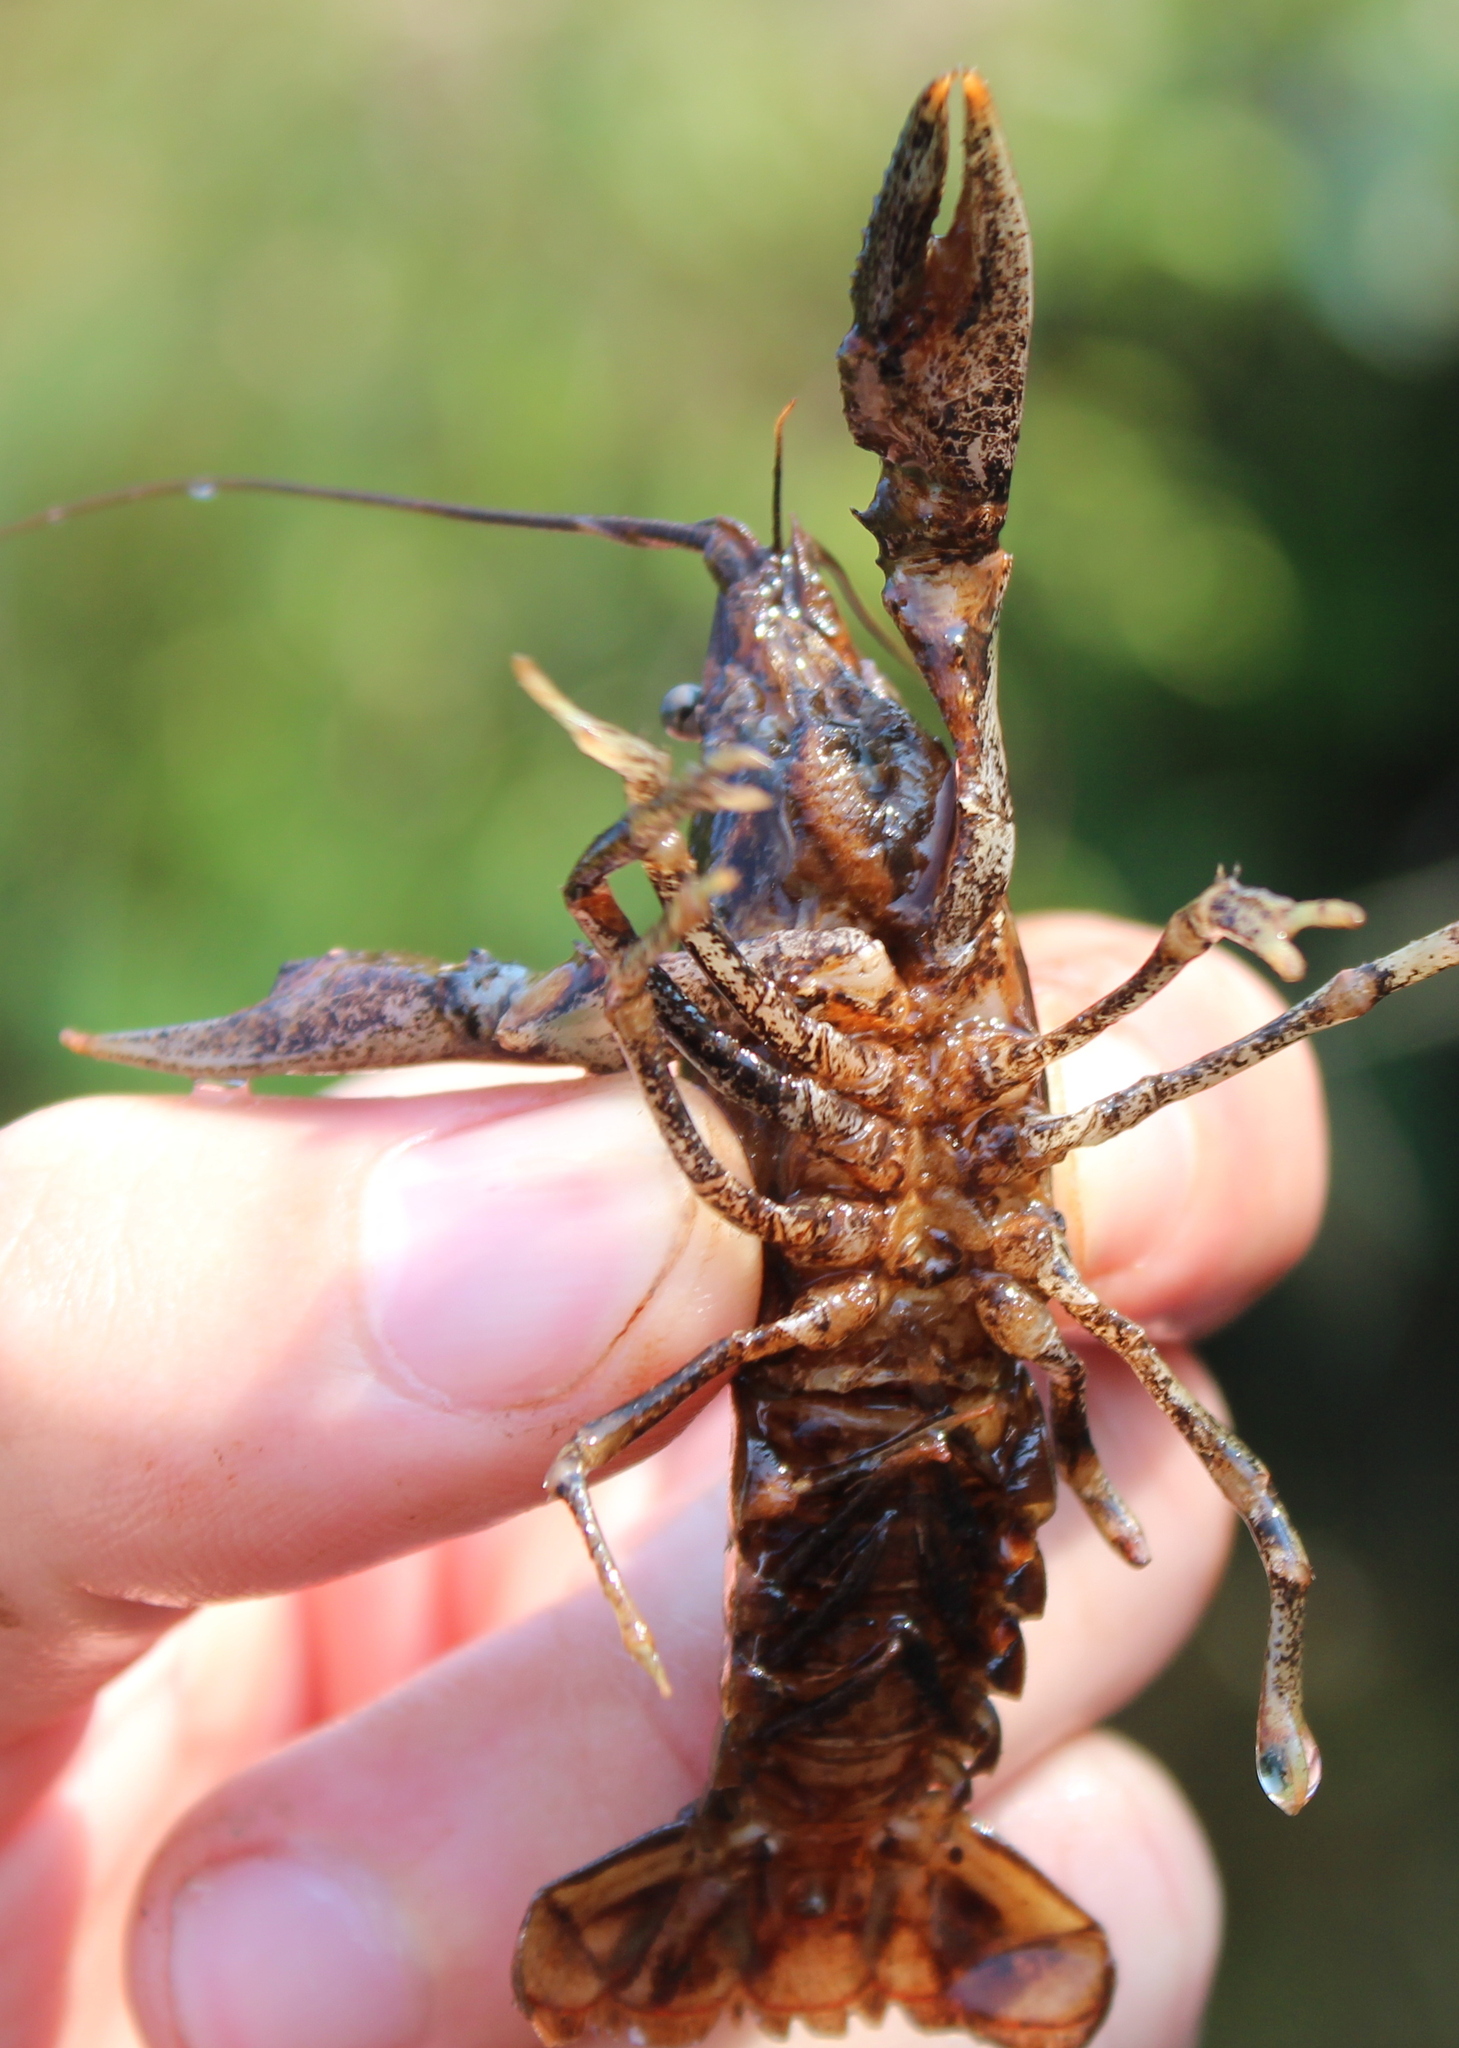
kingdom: Animalia
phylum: Arthropoda
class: Malacostraca
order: Decapoda
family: Cambaridae
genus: Faxonius
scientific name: Faxonius virilis
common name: Virile crayfish
